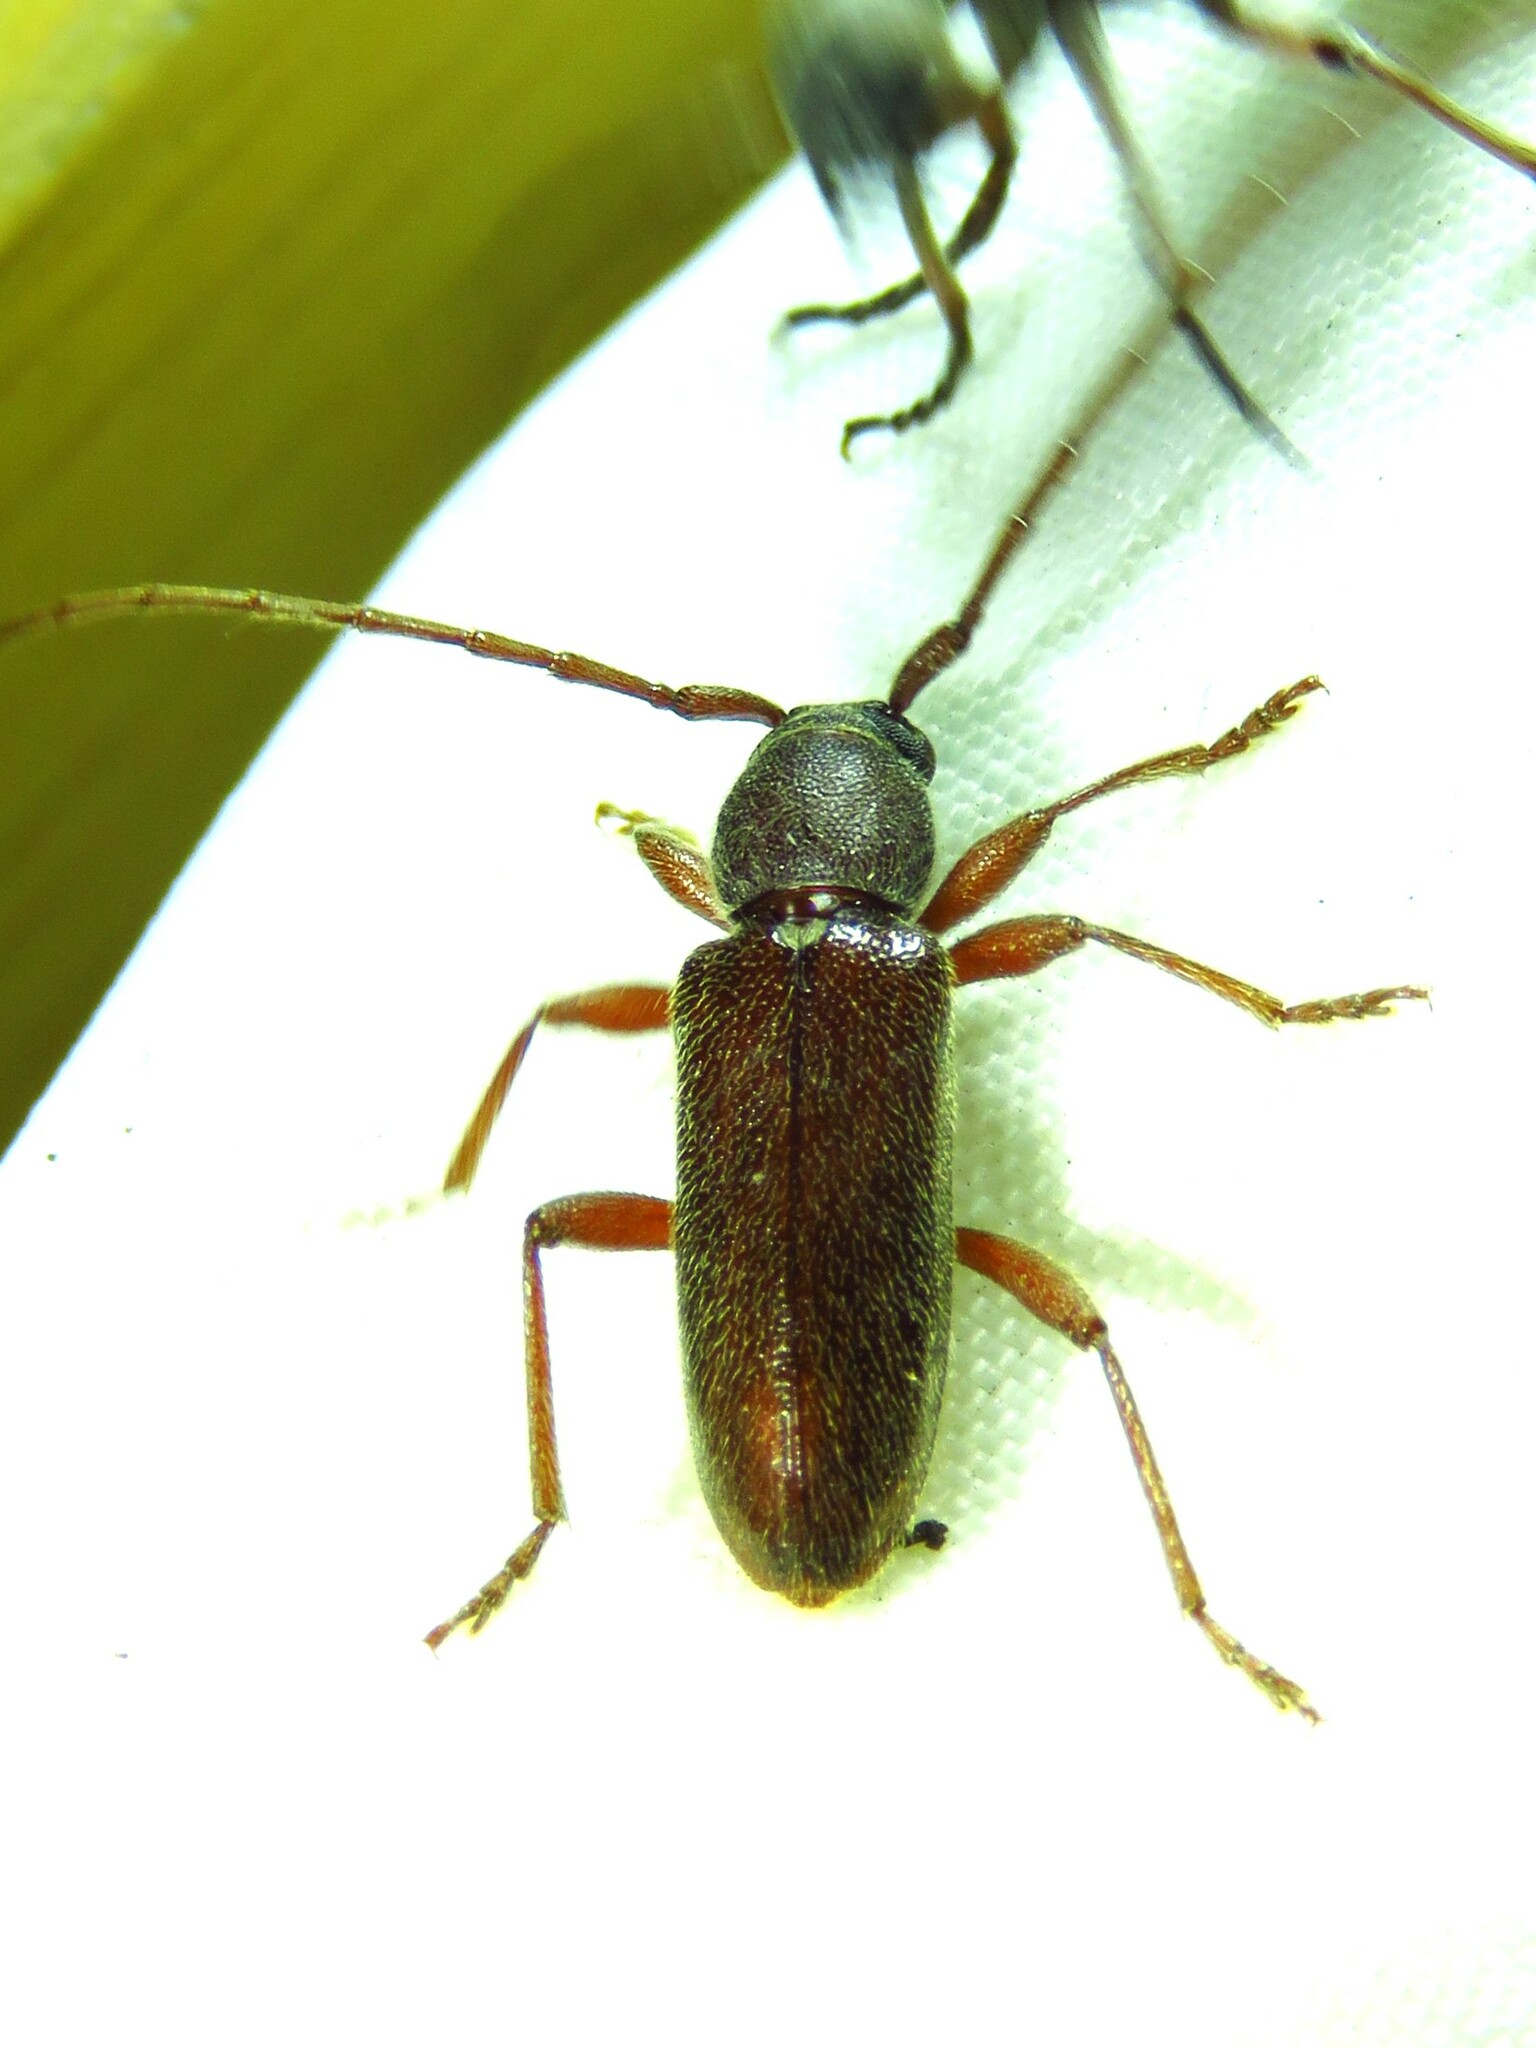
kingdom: Animalia
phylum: Arthropoda
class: Insecta
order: Coleoptera
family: Cerambycidae
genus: Anelaphus
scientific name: Anelaphus moestus
